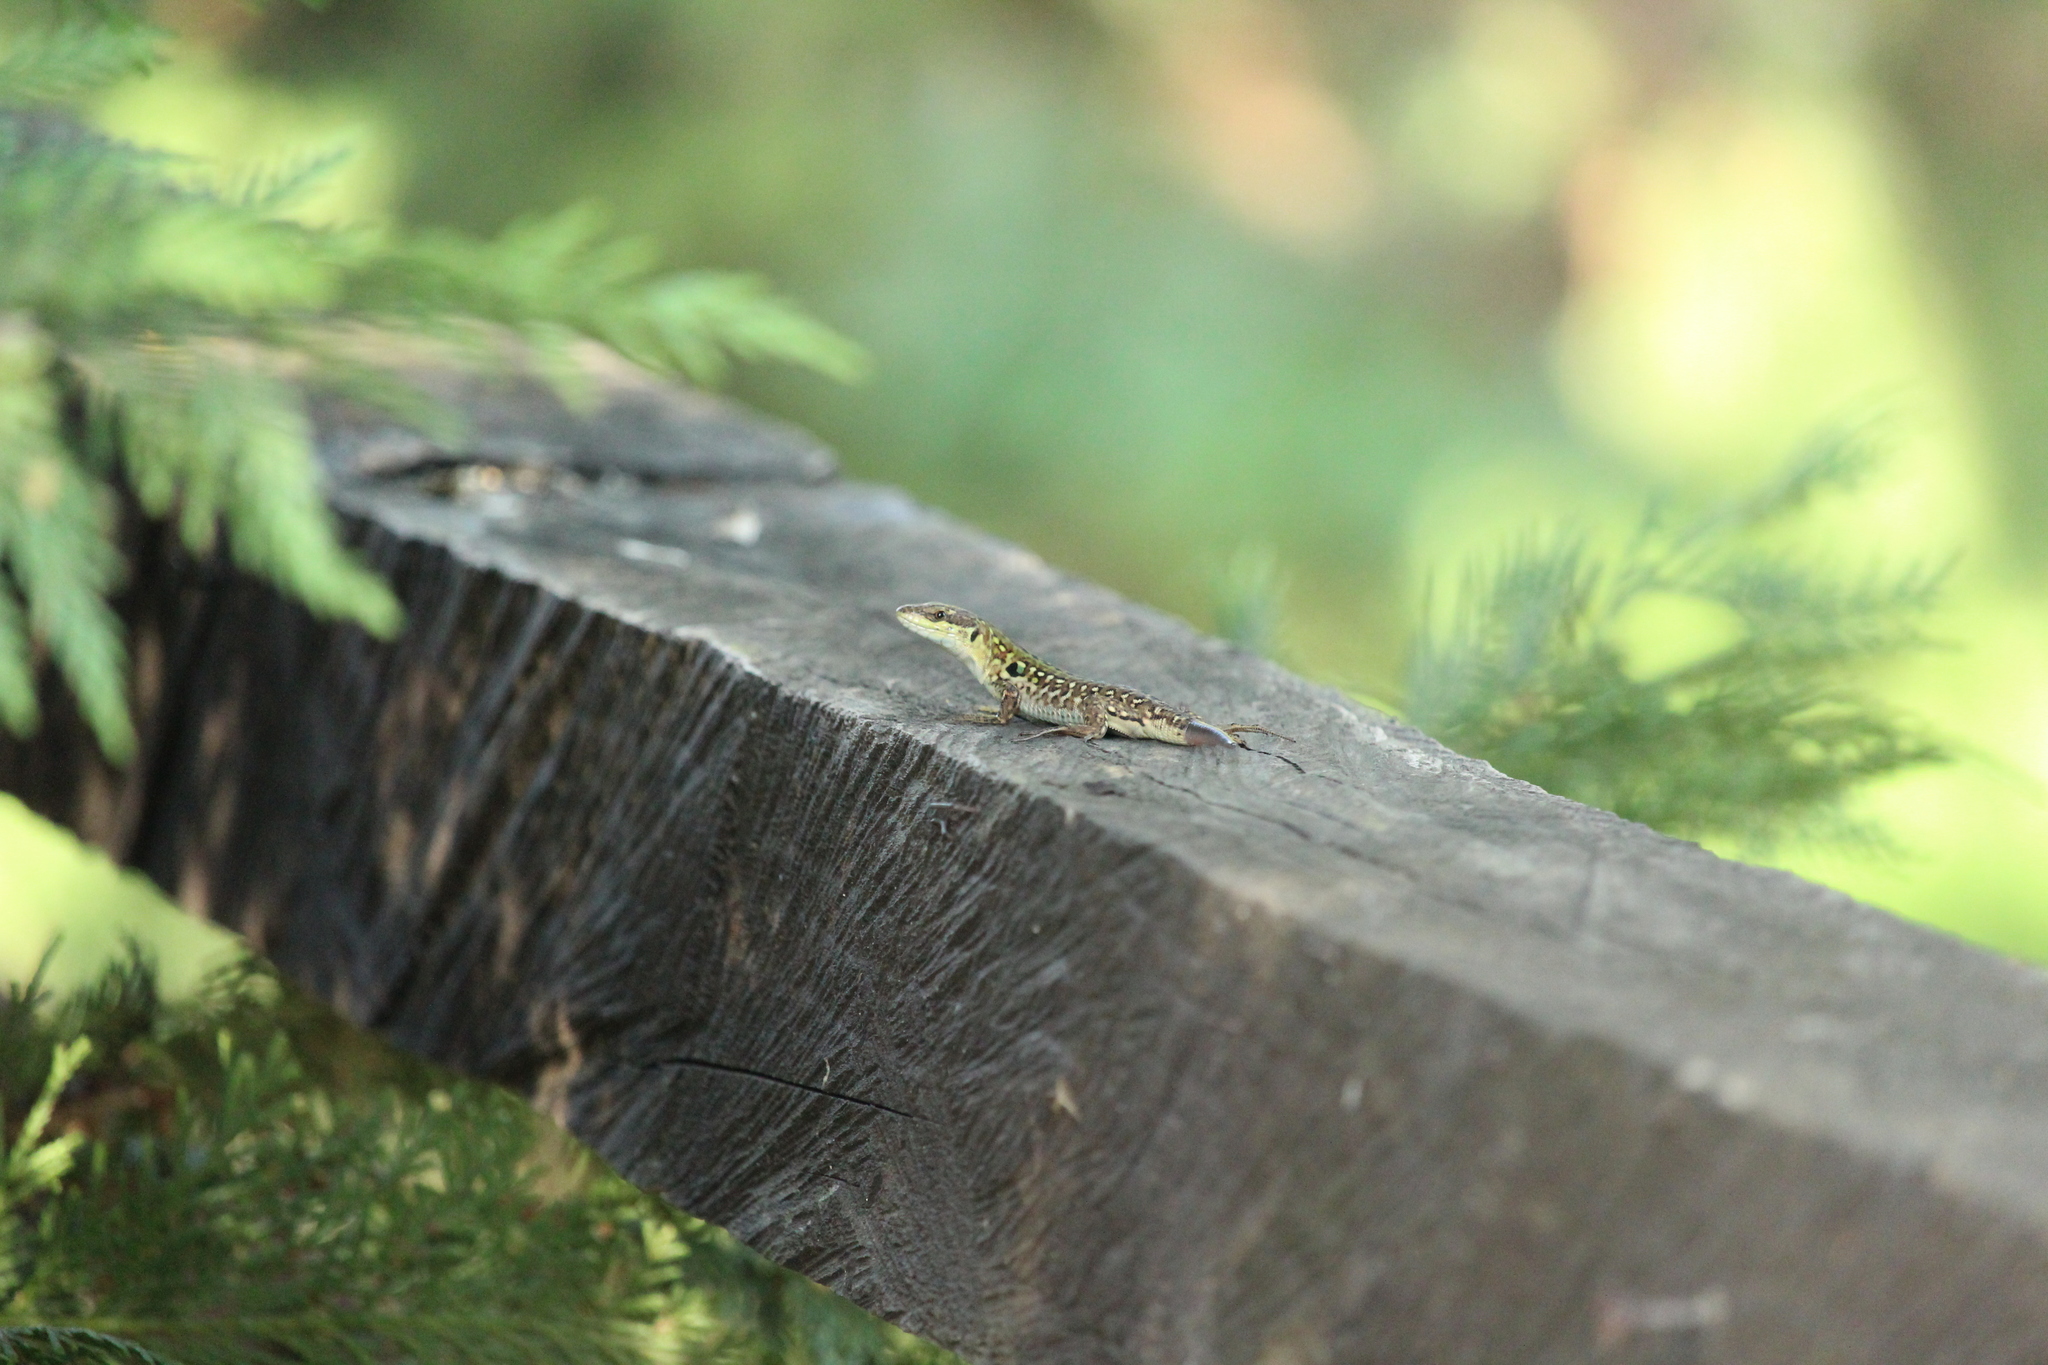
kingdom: Animalia
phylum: Chordata
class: Squamata
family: Lacertidae
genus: Podarcis
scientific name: Podarcis siculus
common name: Italian wall lizard
